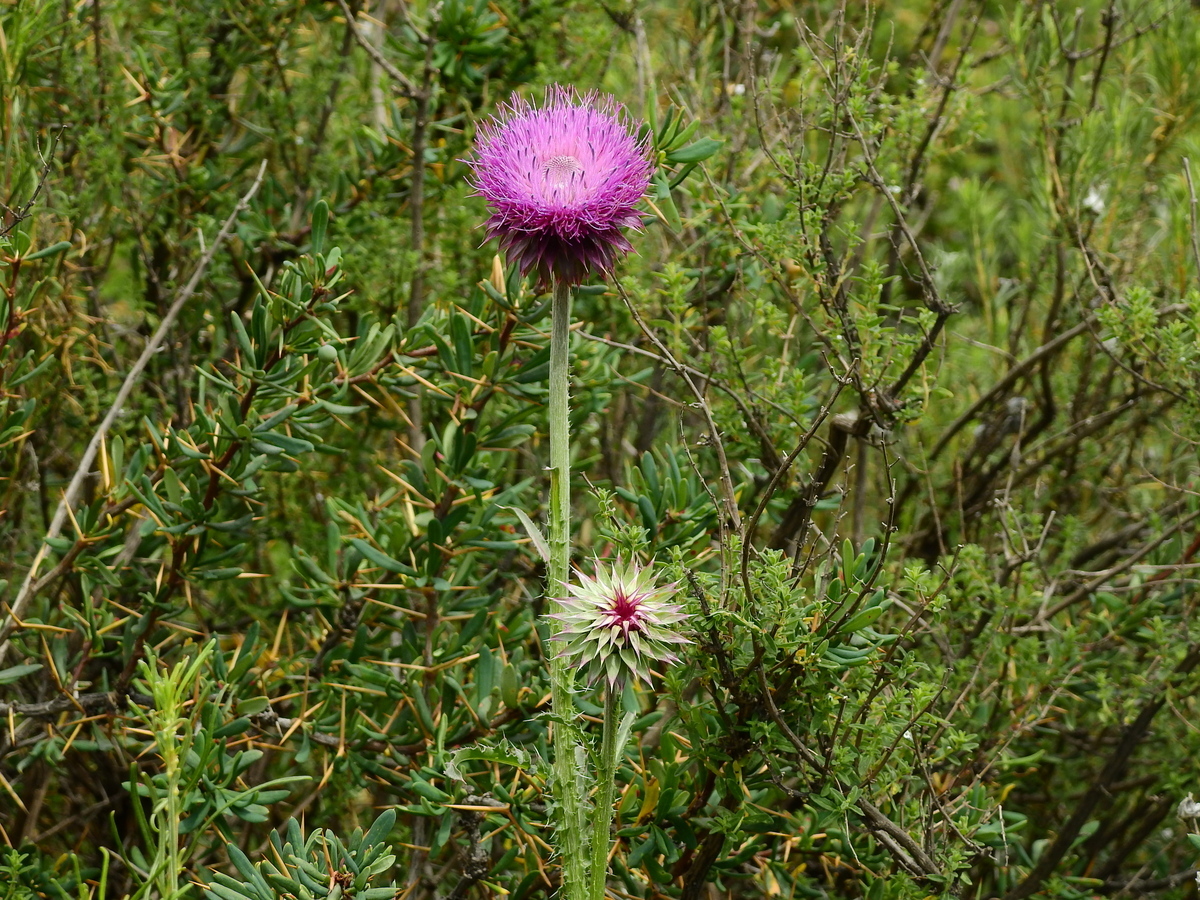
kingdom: Plantae
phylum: Tracheophyta
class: Magnoliopsida
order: Asterales
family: Asteraceae
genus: Carduus
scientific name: Carduus nutans
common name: Musk thistle
